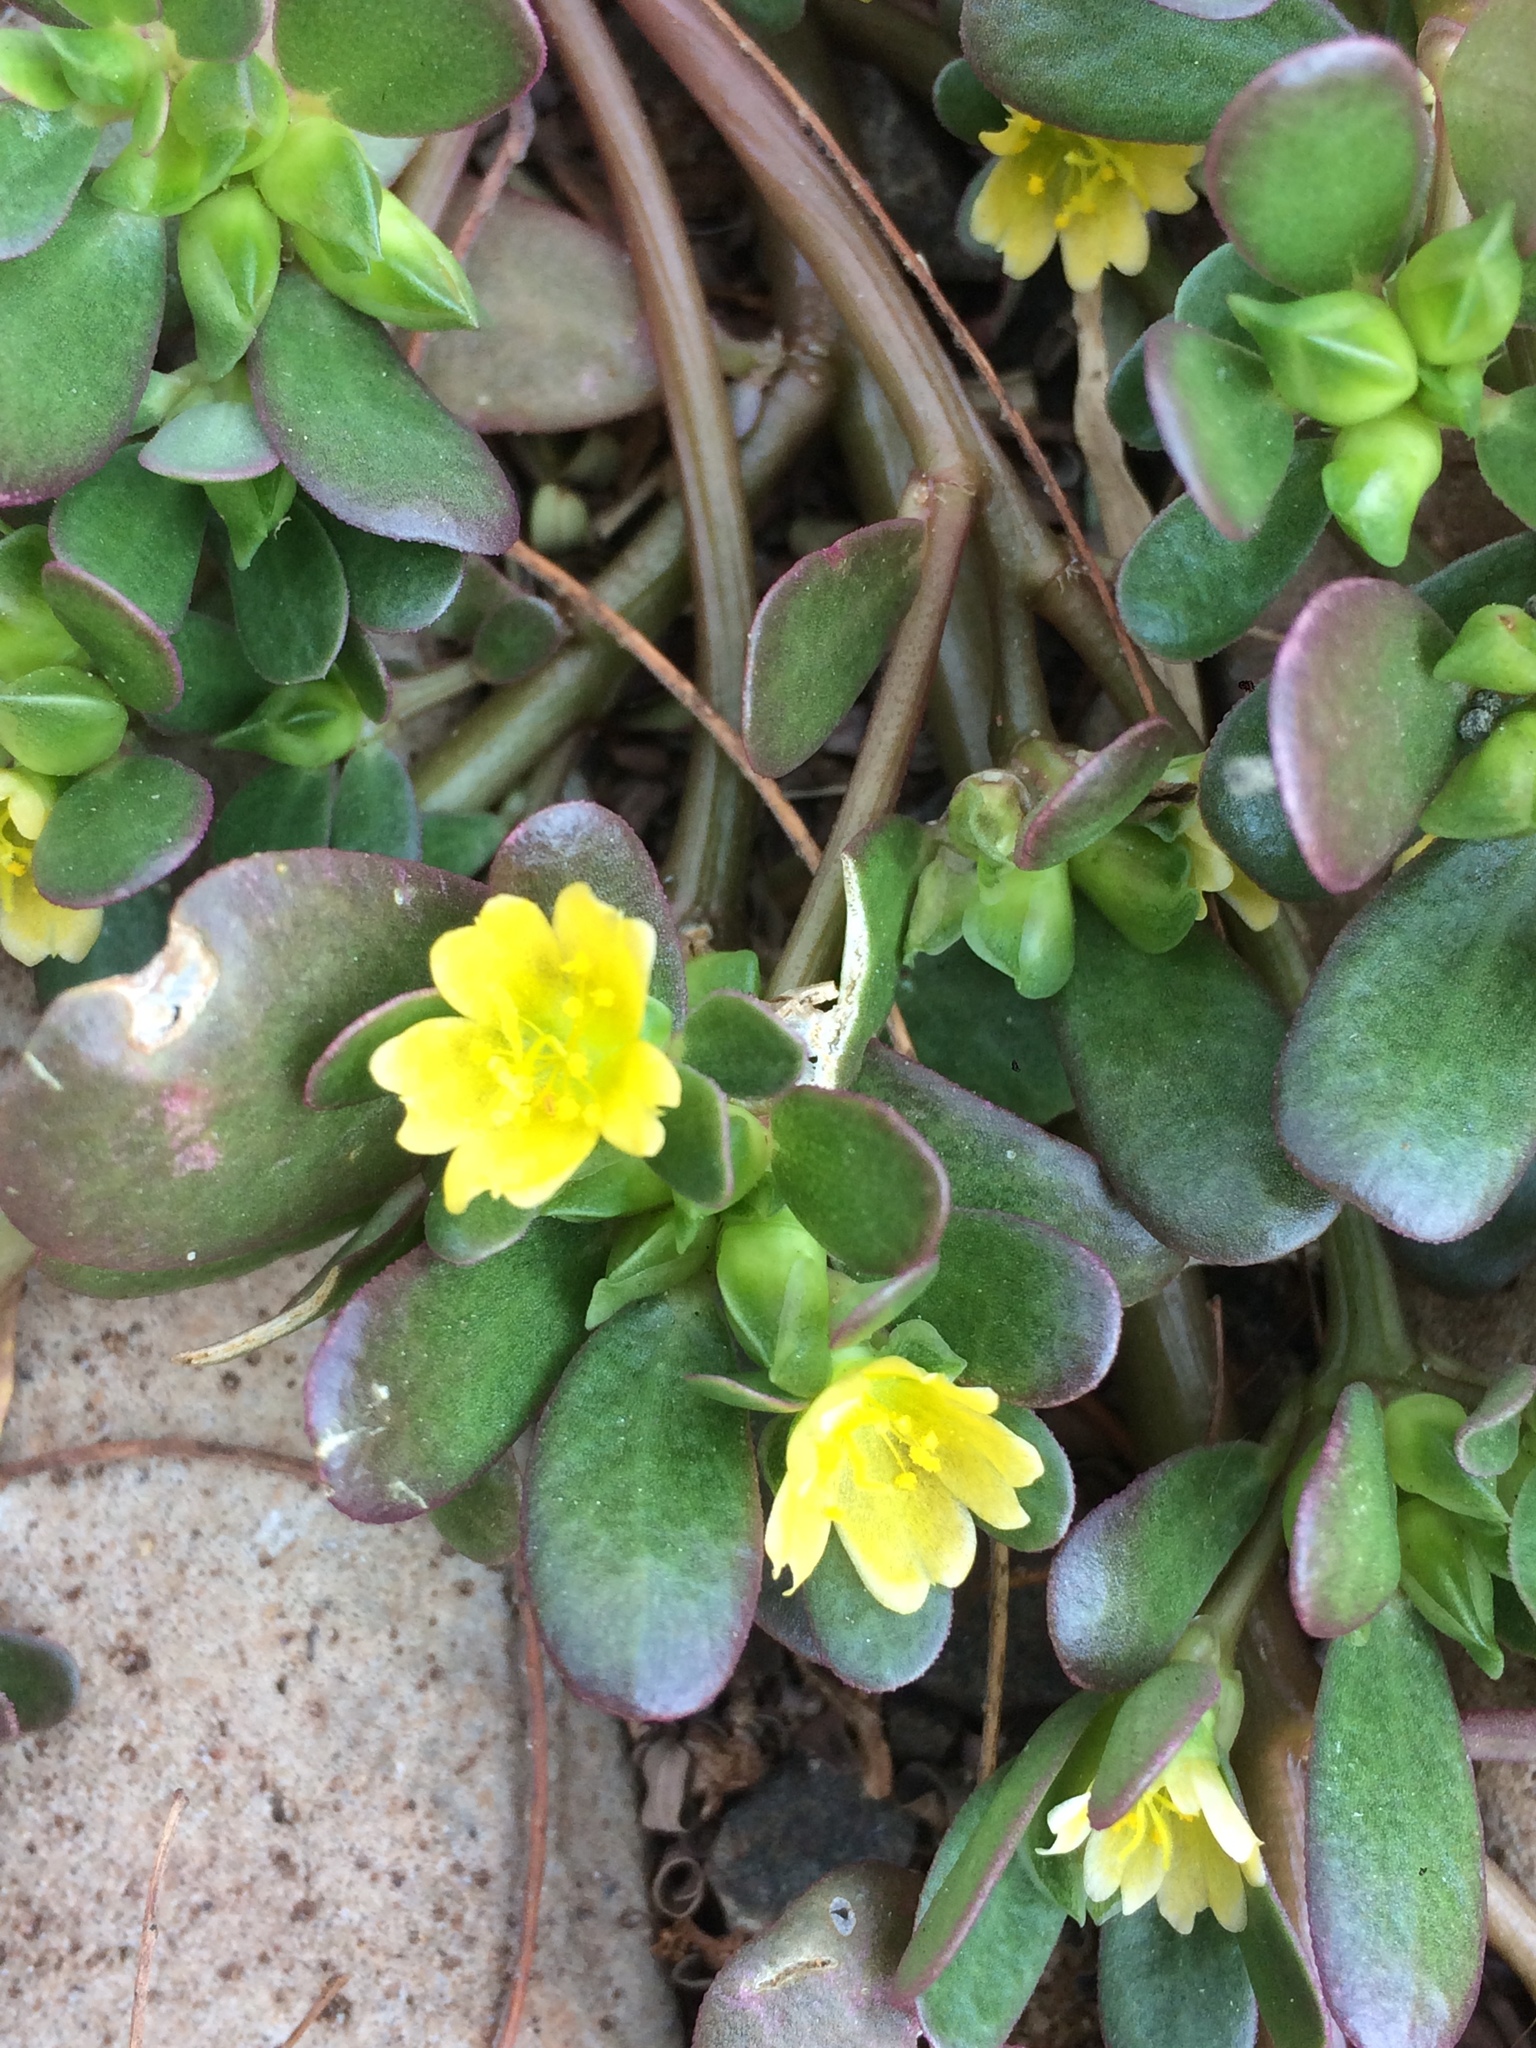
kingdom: Plantae
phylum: Tracheophyta
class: Magnoliopsida
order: Caryophyllales
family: Portulacaceae
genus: Portulaca
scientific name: Portulaca oleracea
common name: Common purslane
